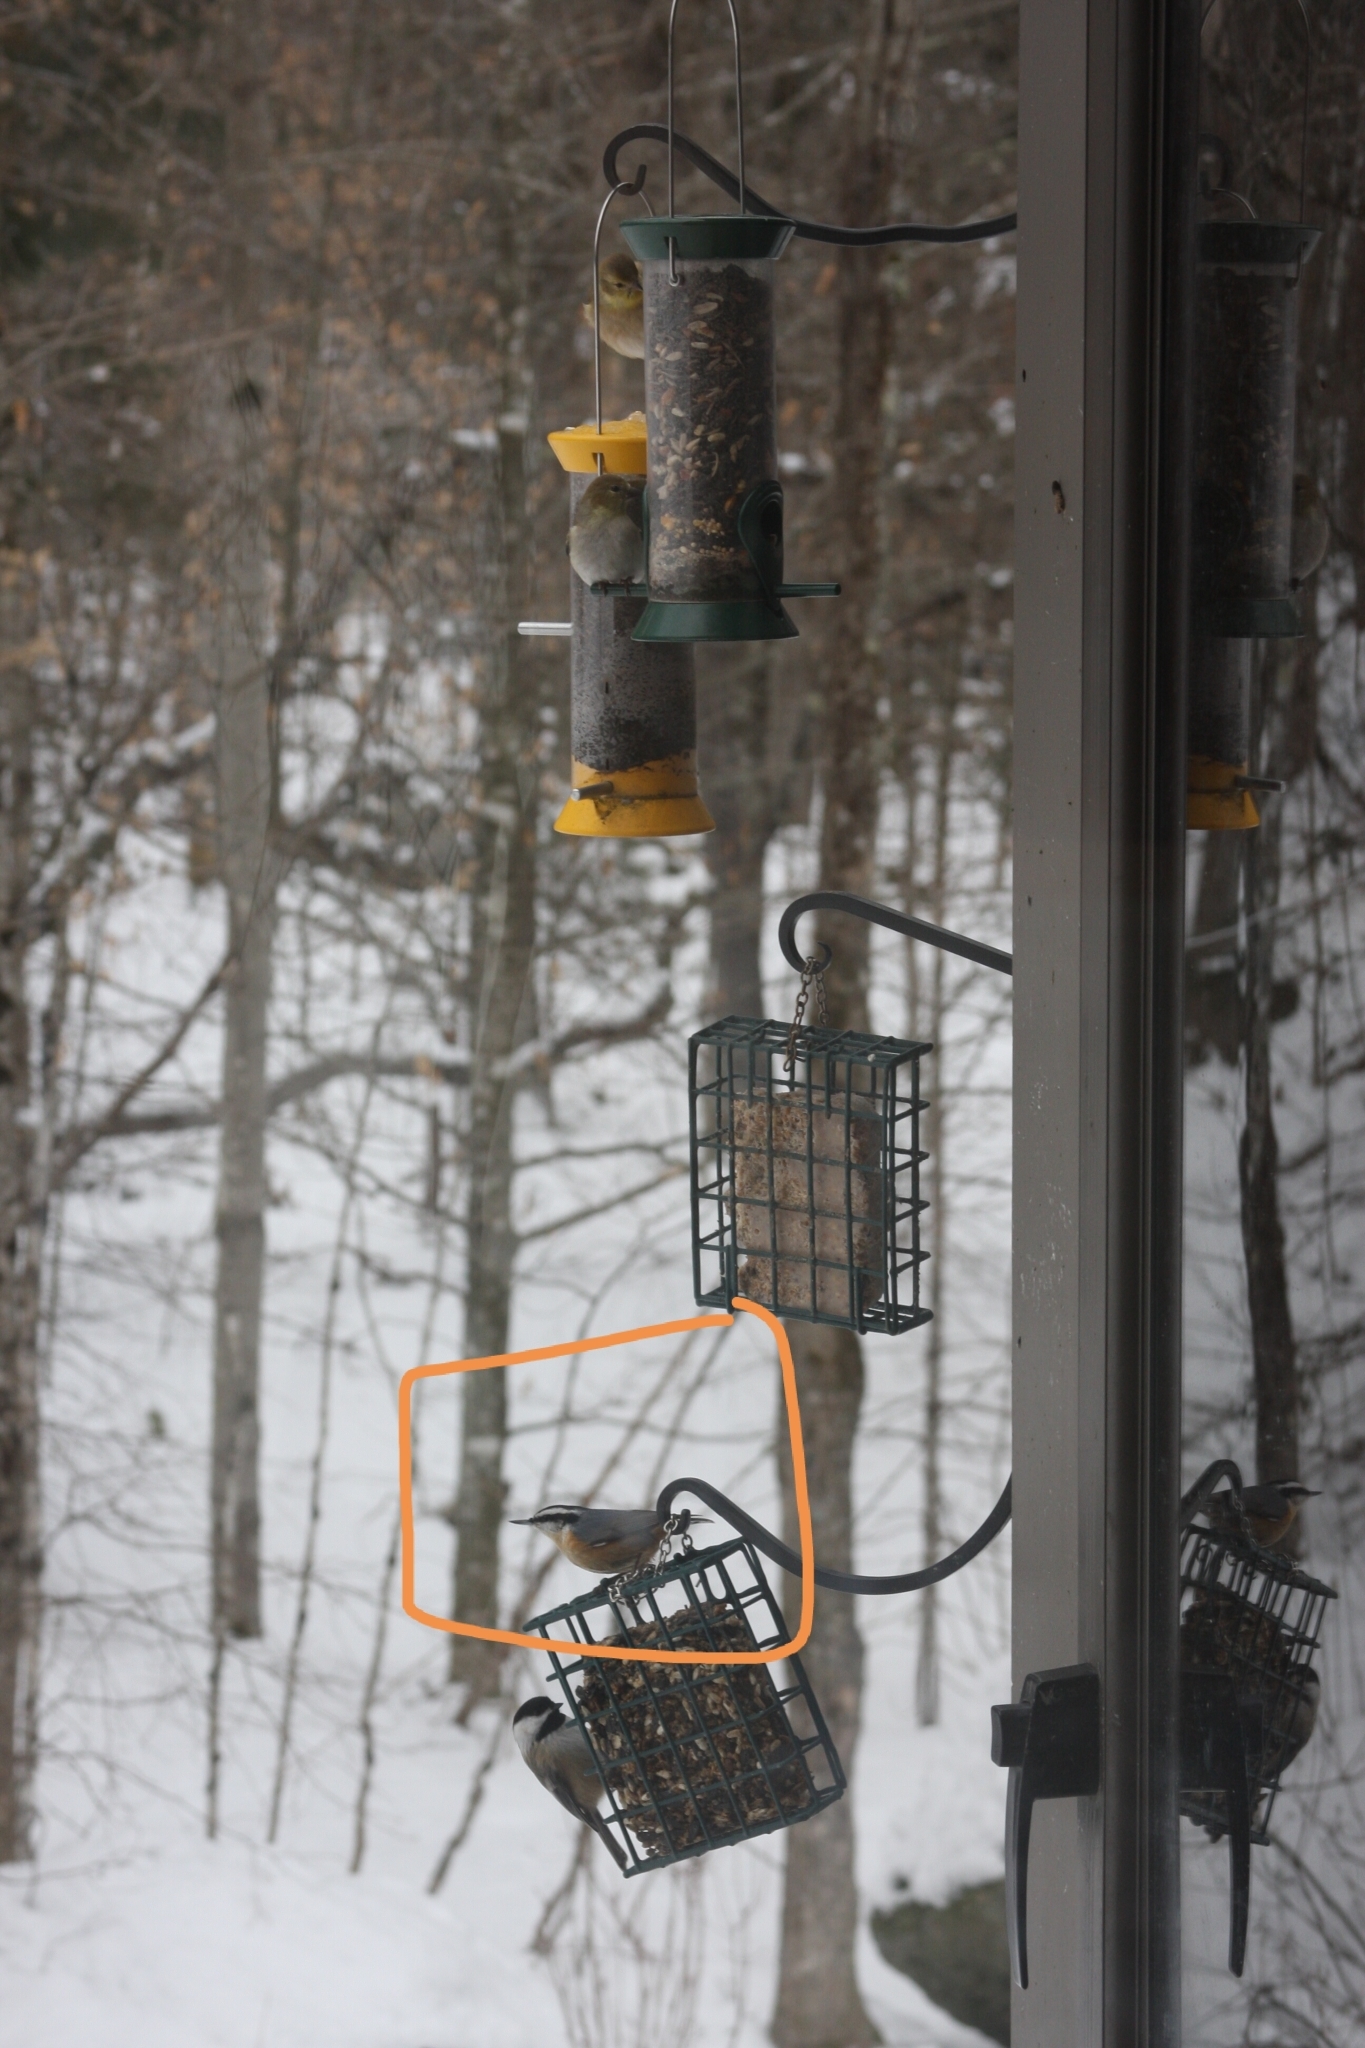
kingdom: Animalia
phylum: Chordata
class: Aves
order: Passeriformes
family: Sittidae
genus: Sitta
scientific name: Sitta canadensis
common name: Red-breasted nuthatch
